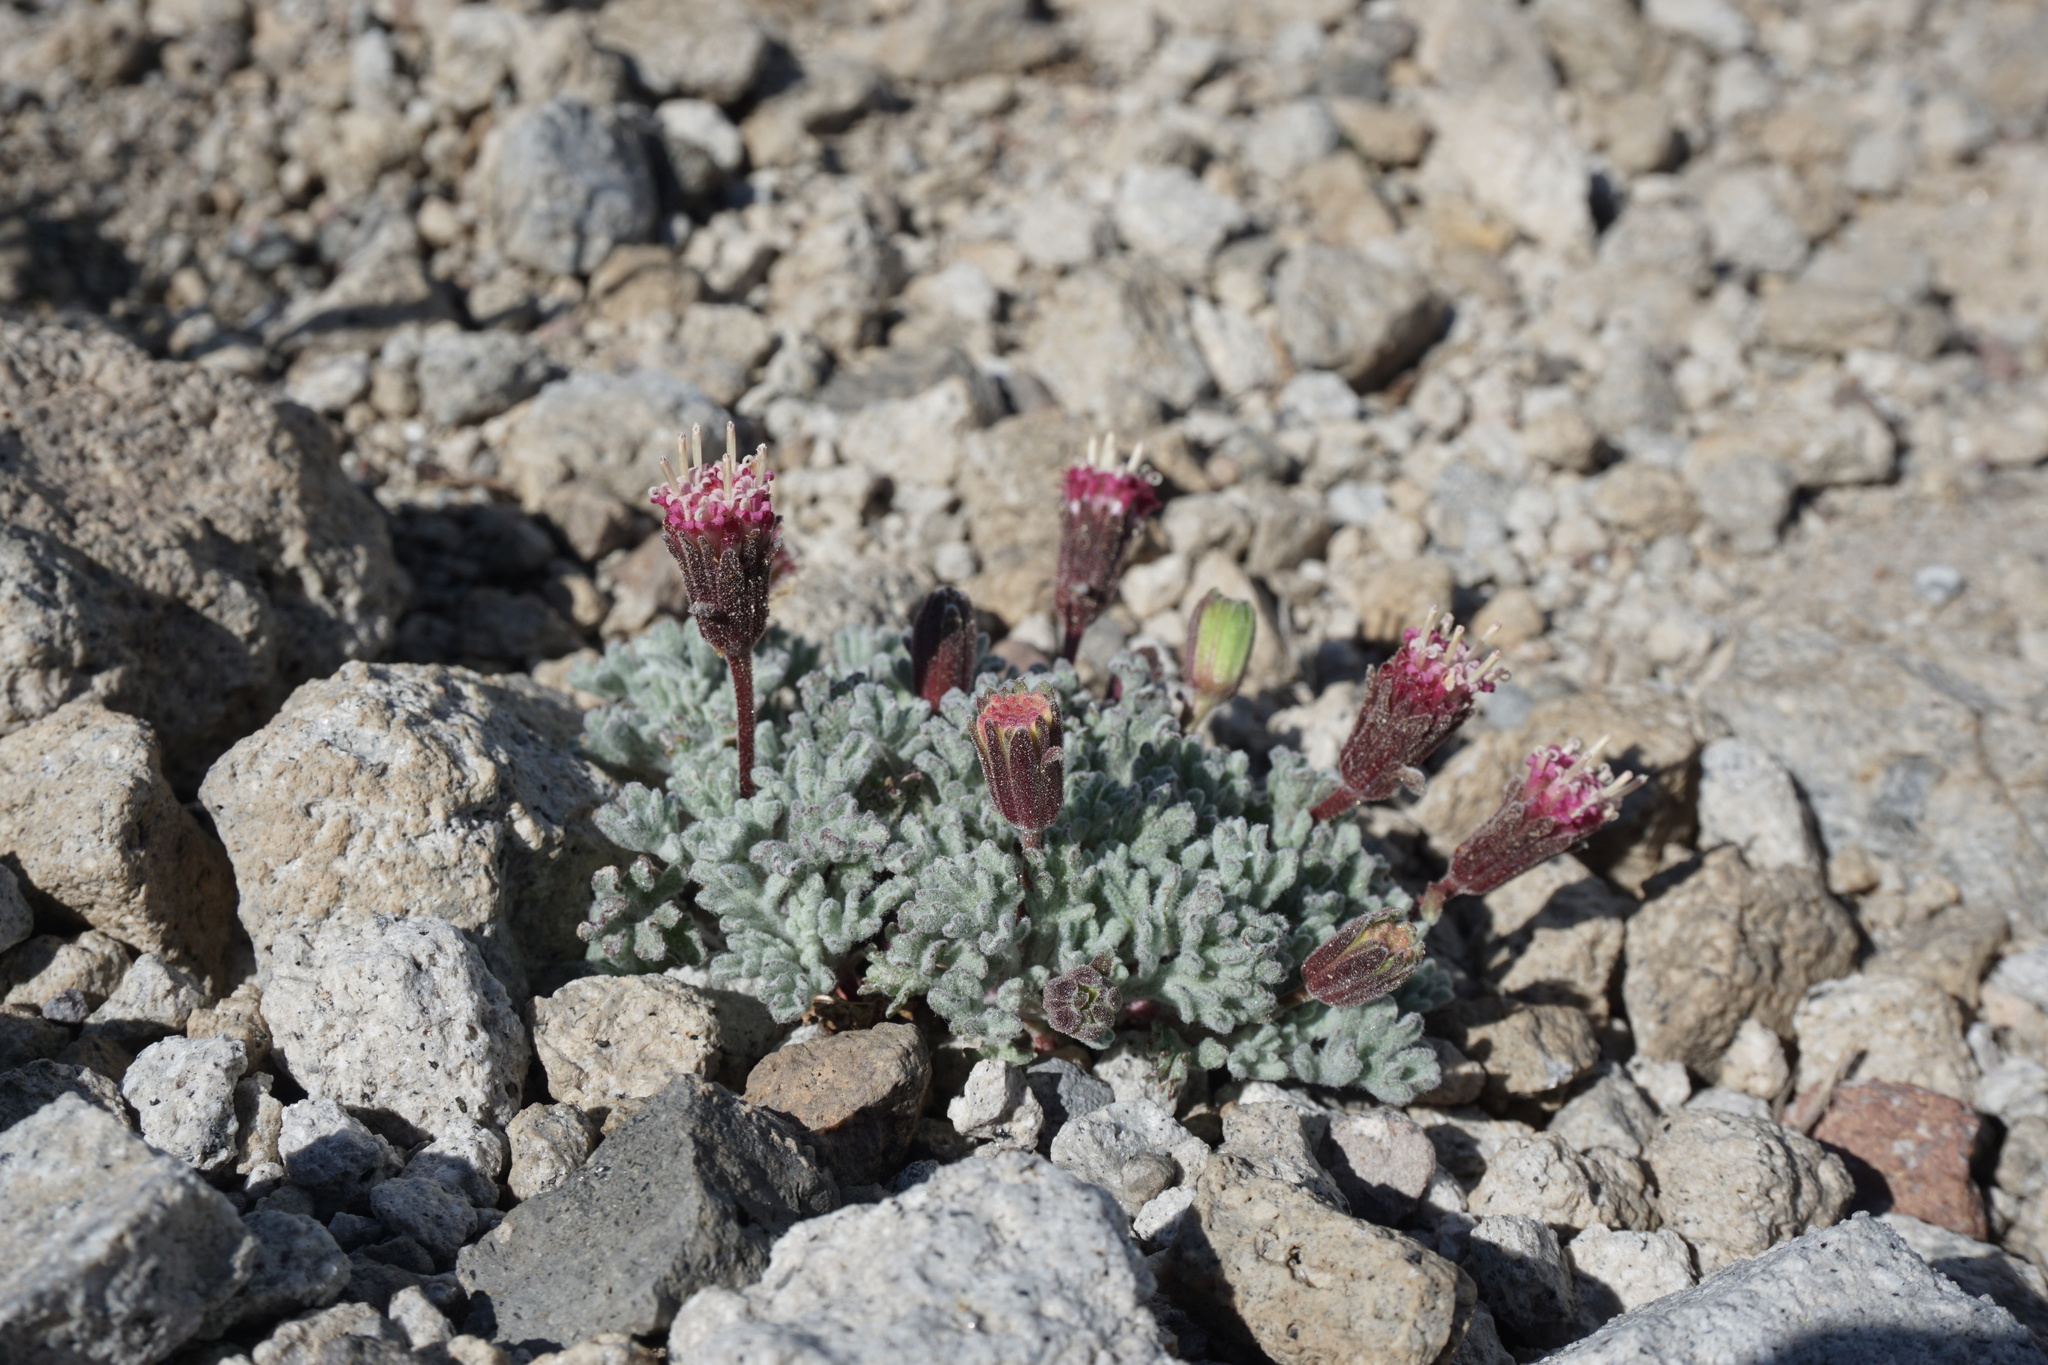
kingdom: Plantae
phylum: Tracheophyta
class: Magnoliopsida
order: Asterales
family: Asteraceae
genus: Chaenactis
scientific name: Chaenactis nevadensis
